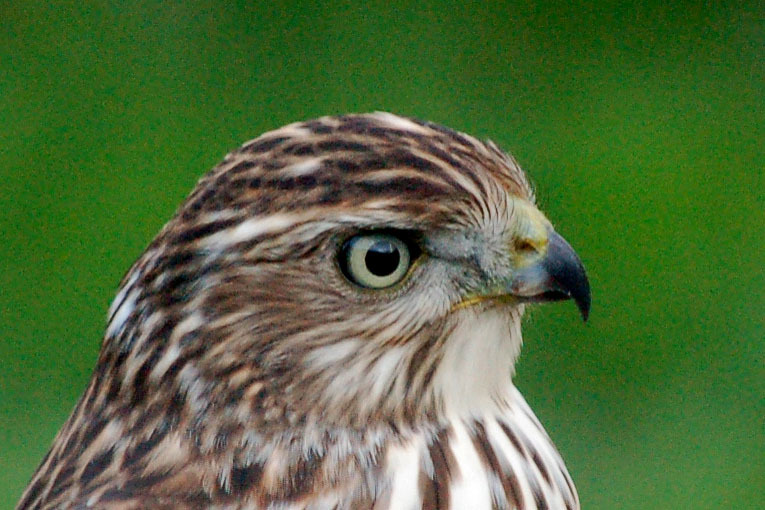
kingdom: Animalia
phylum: Chordata
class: Aves
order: Accipitriformes
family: Accipitridae
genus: Accipiter
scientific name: Accipiter cooperii
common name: Cooper's hawk
